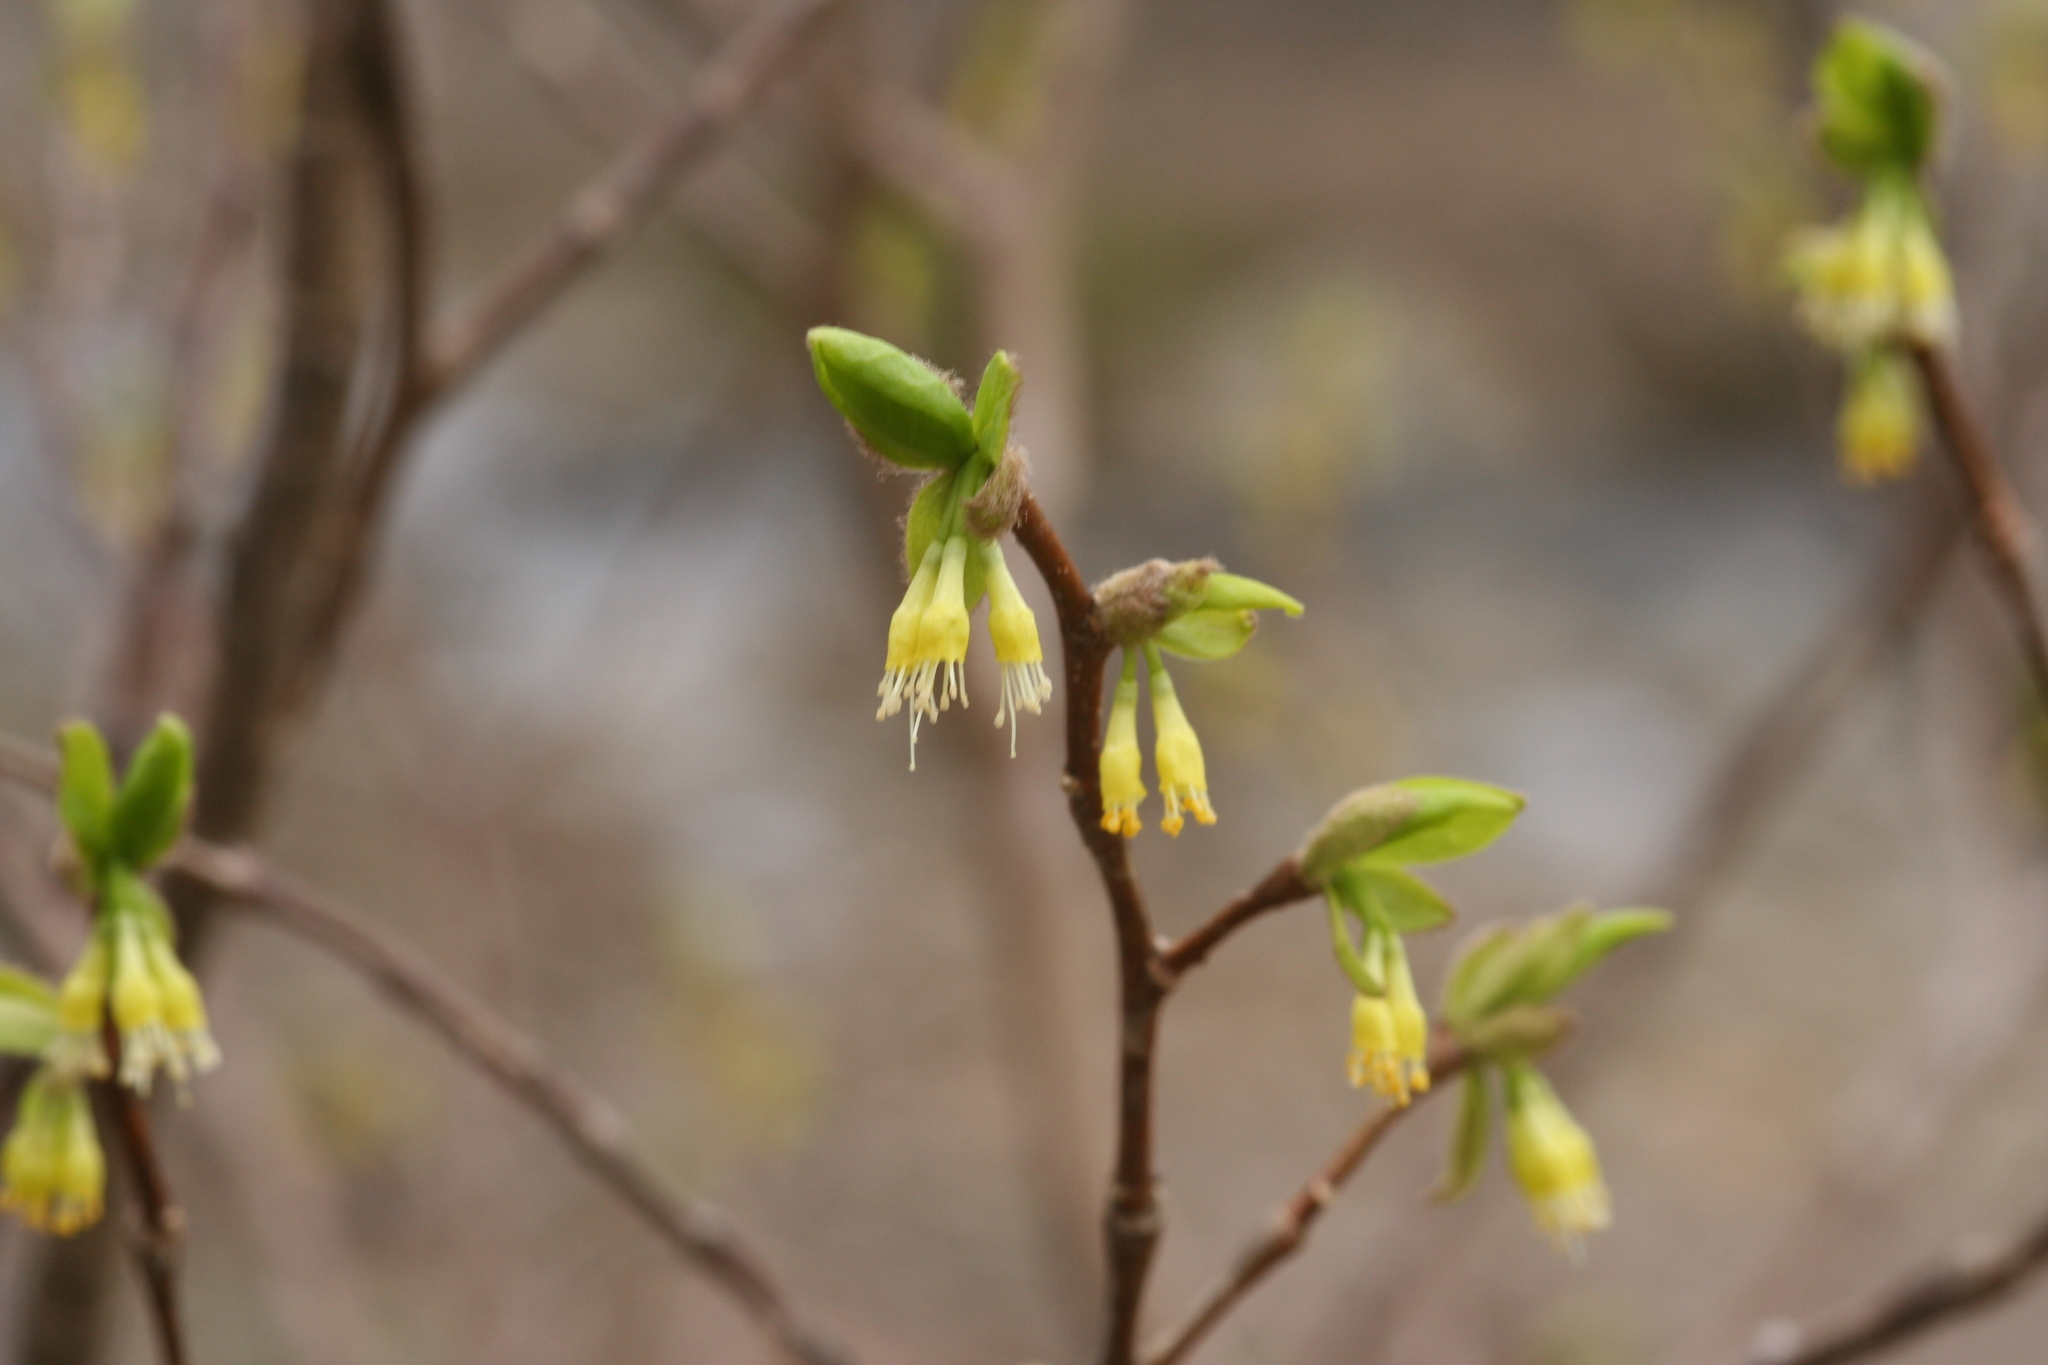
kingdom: Plantae
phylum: Tracheophyta
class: Magnoliopsida
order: Malvales
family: Thymelaeaceae
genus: Dirca
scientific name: Dirca palustris
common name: Leatherwood
